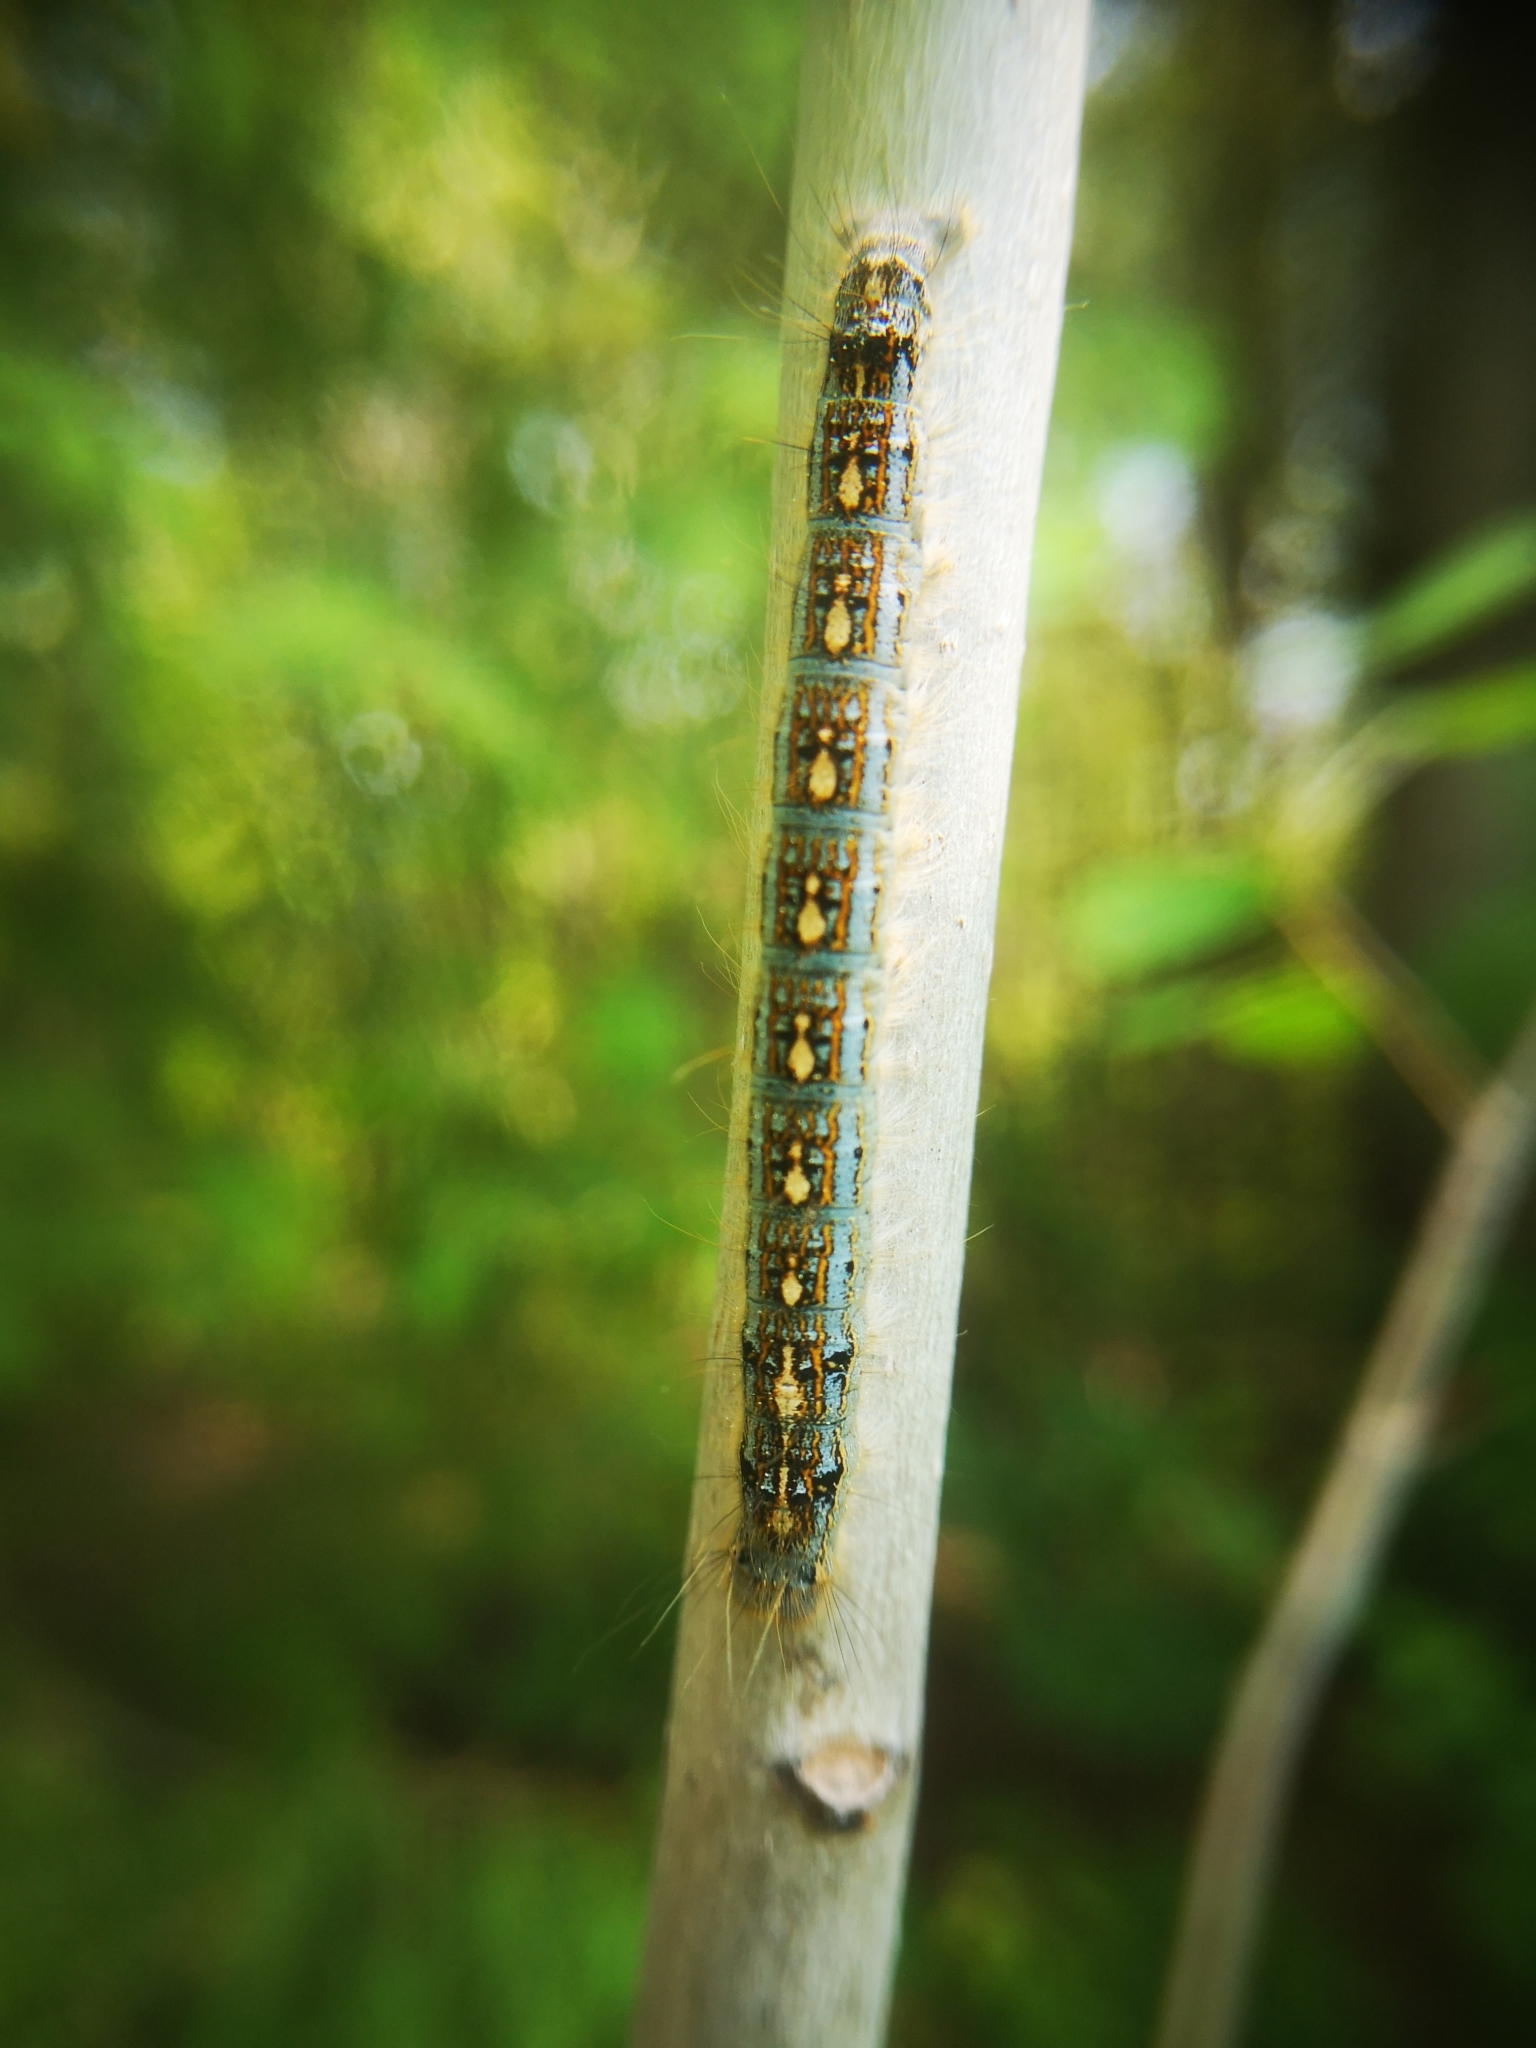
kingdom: Animalia
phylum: Arthropoda
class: Insecta
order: Lepidoptera
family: Lasiocampidae
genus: Malacosoma
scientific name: Malacosoma disstria
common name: Forest tent caterpillar
